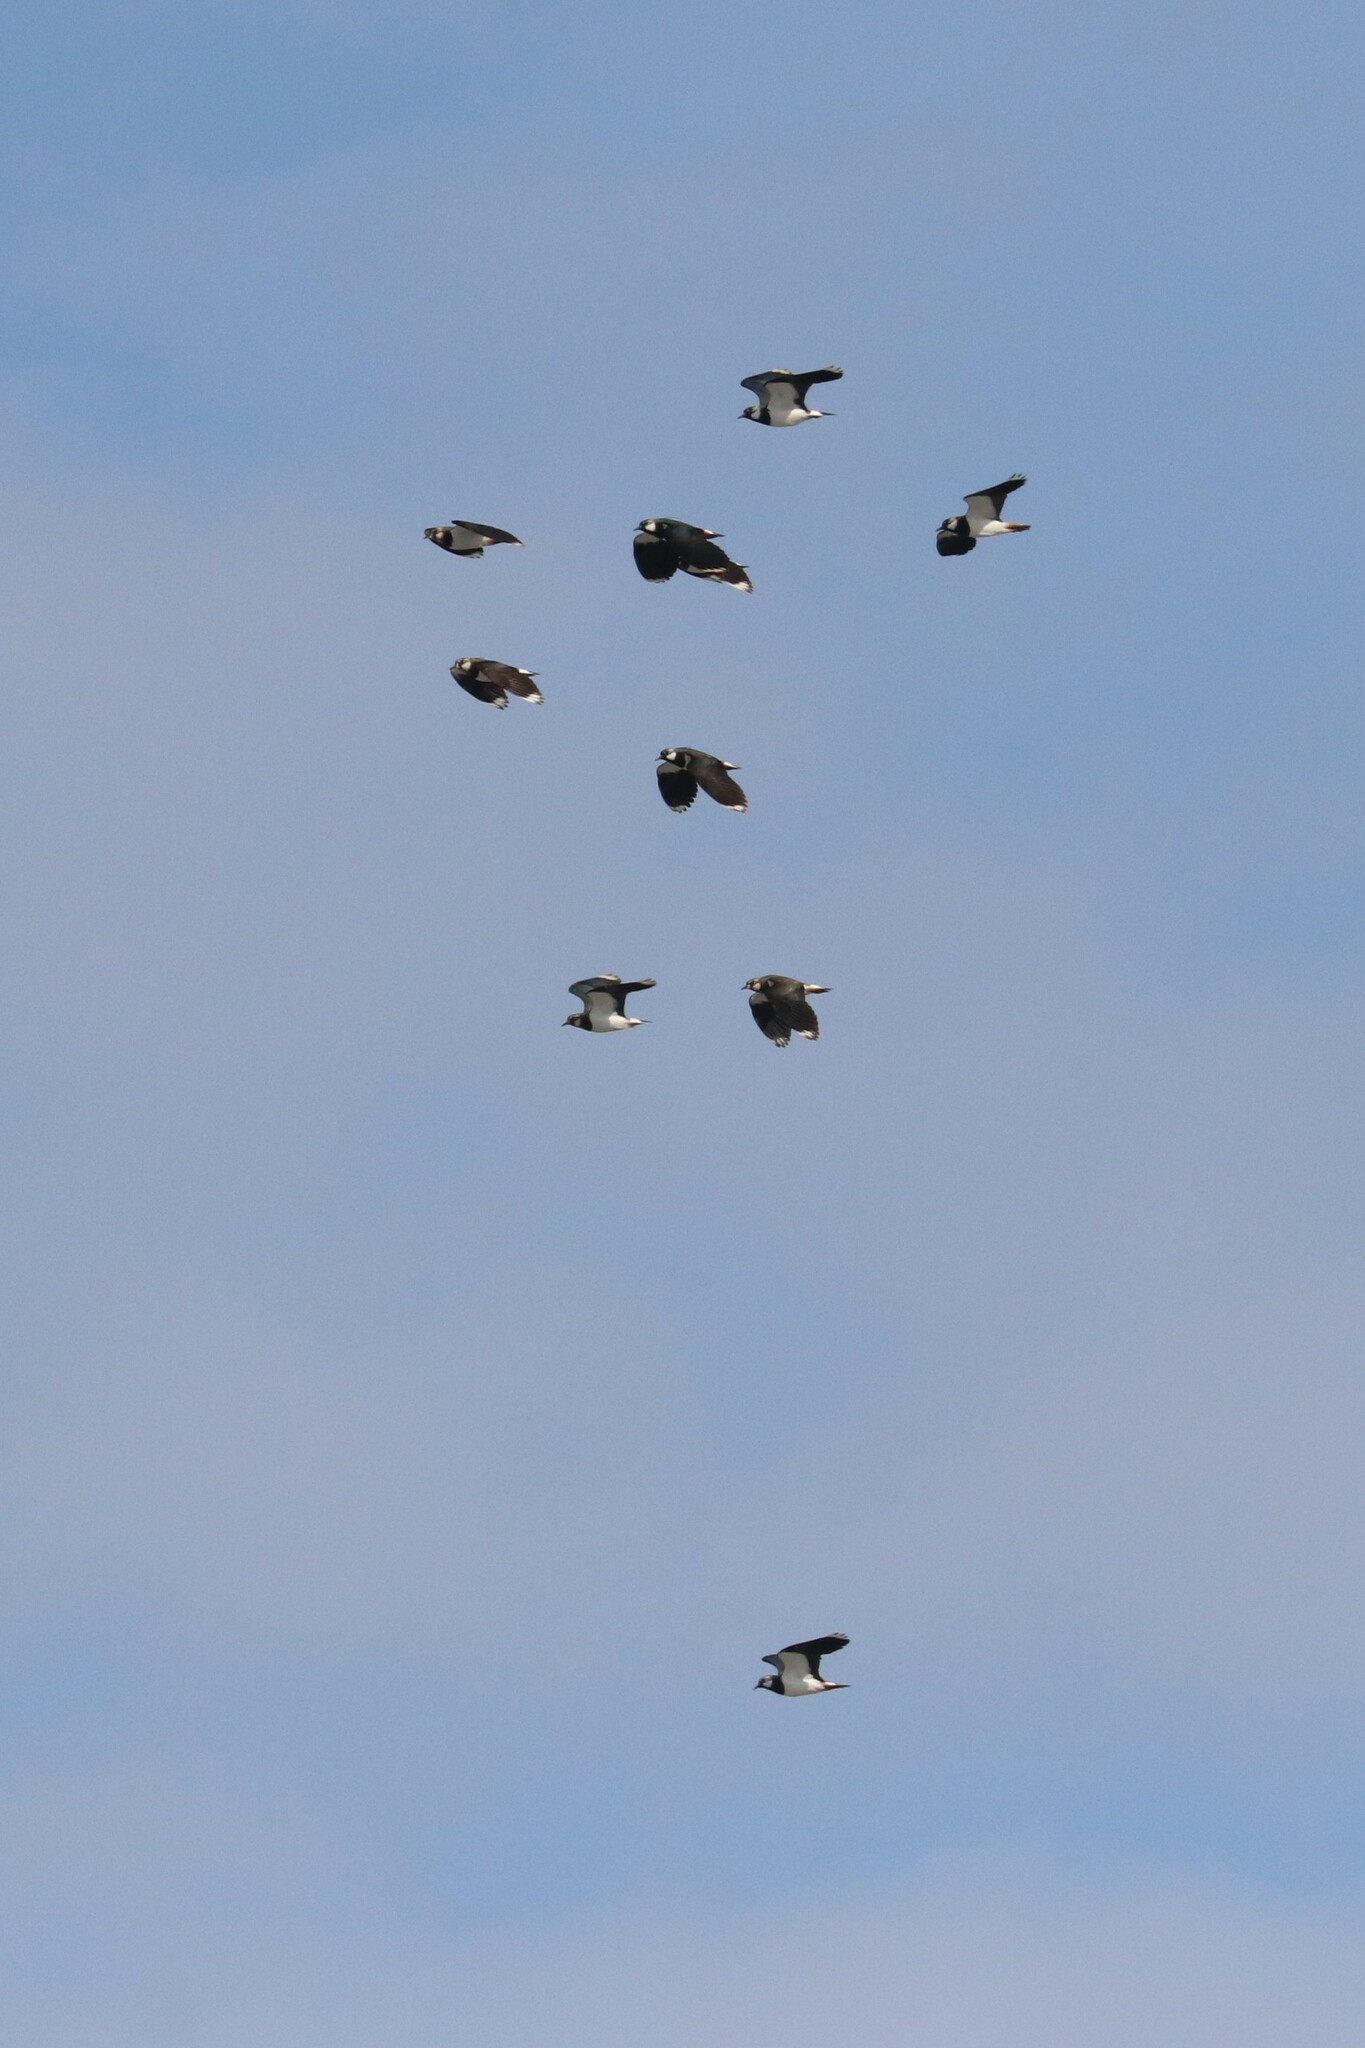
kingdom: Animalia
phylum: Chordata
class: Aves
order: Charadriiformes
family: Charadriidae
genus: Vanellus
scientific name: Vanellus vanellus
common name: Northern lapwing
